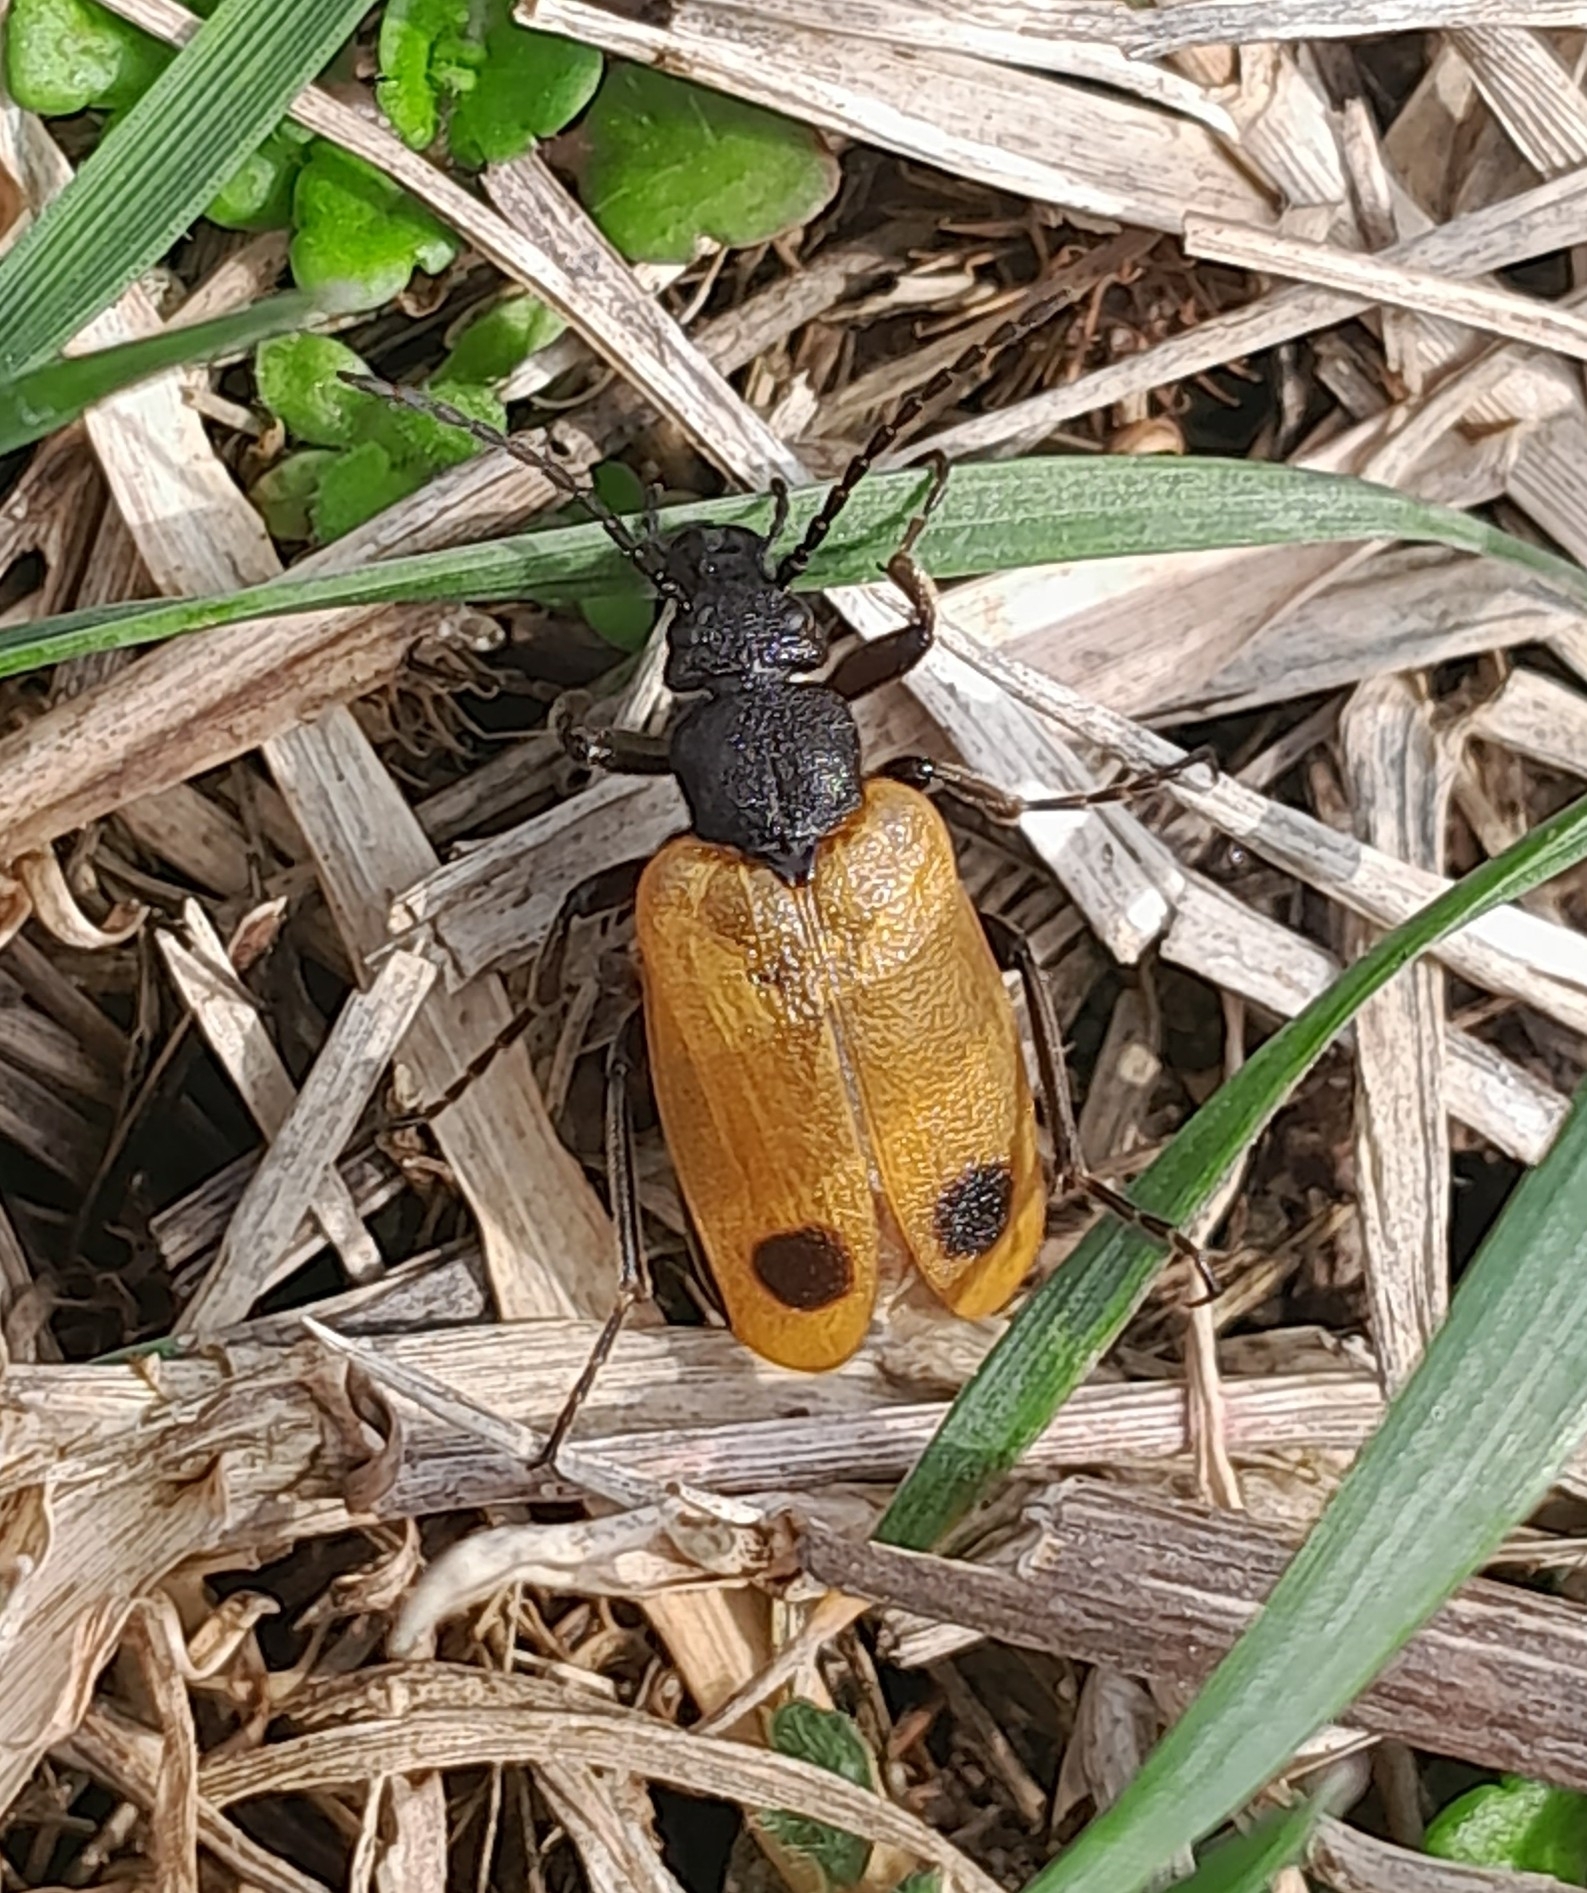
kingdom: Animalia
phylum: Arthropoda
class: Insecta
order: Coleoptera
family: Meloidae
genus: Apalus
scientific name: Apalus bimaculatus
